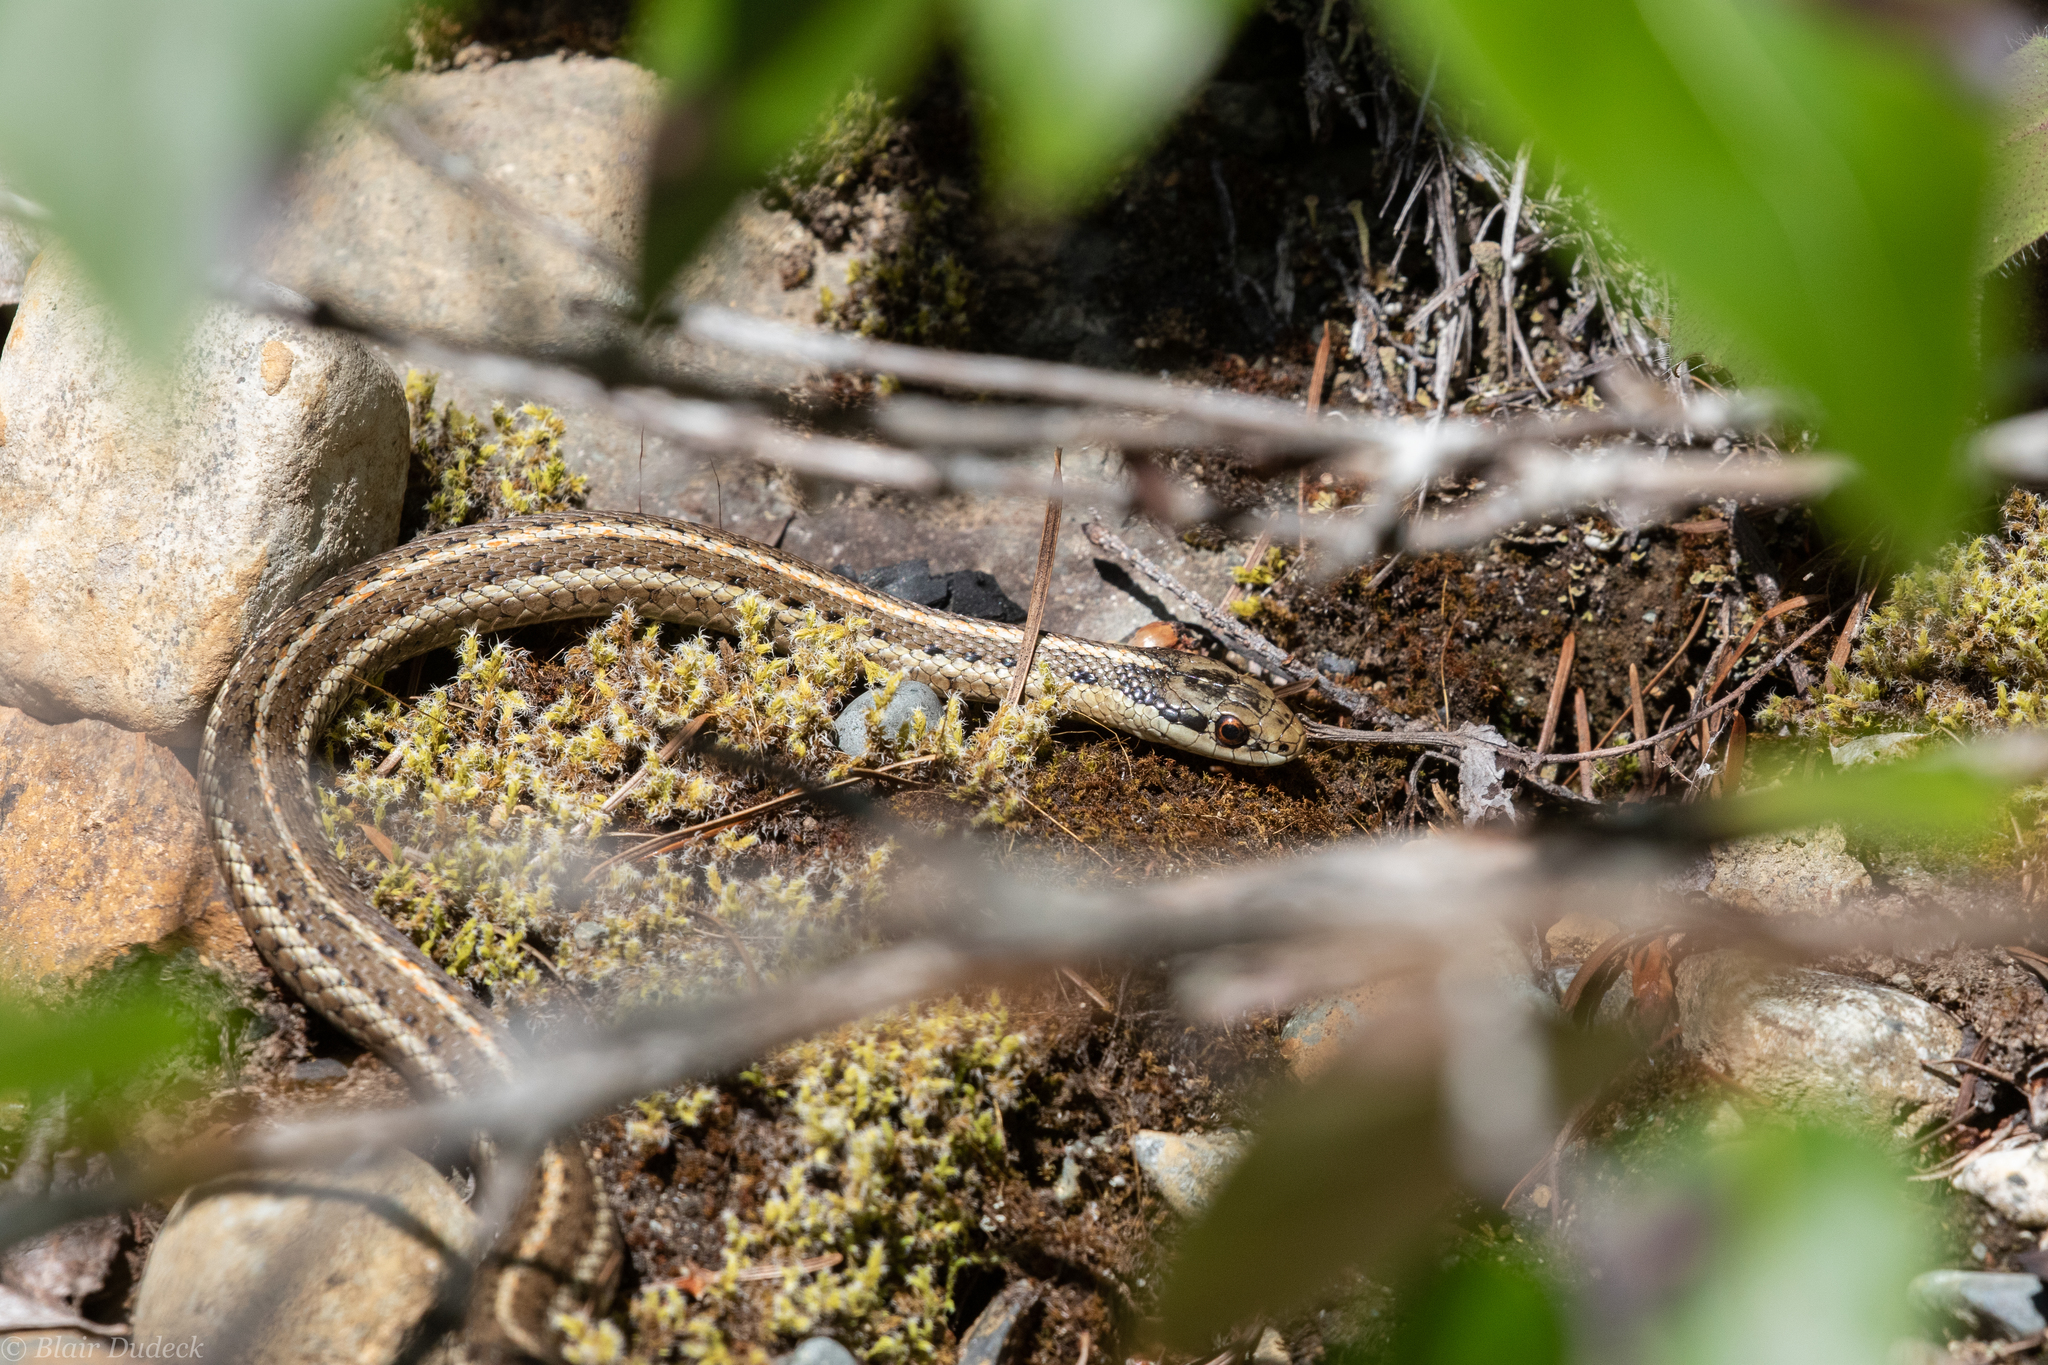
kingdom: Animalia
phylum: Chordata
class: Squamata
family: Colubridae
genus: Thamnophis
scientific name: Thamnophis ordinoides
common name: Northwestern garter snake
